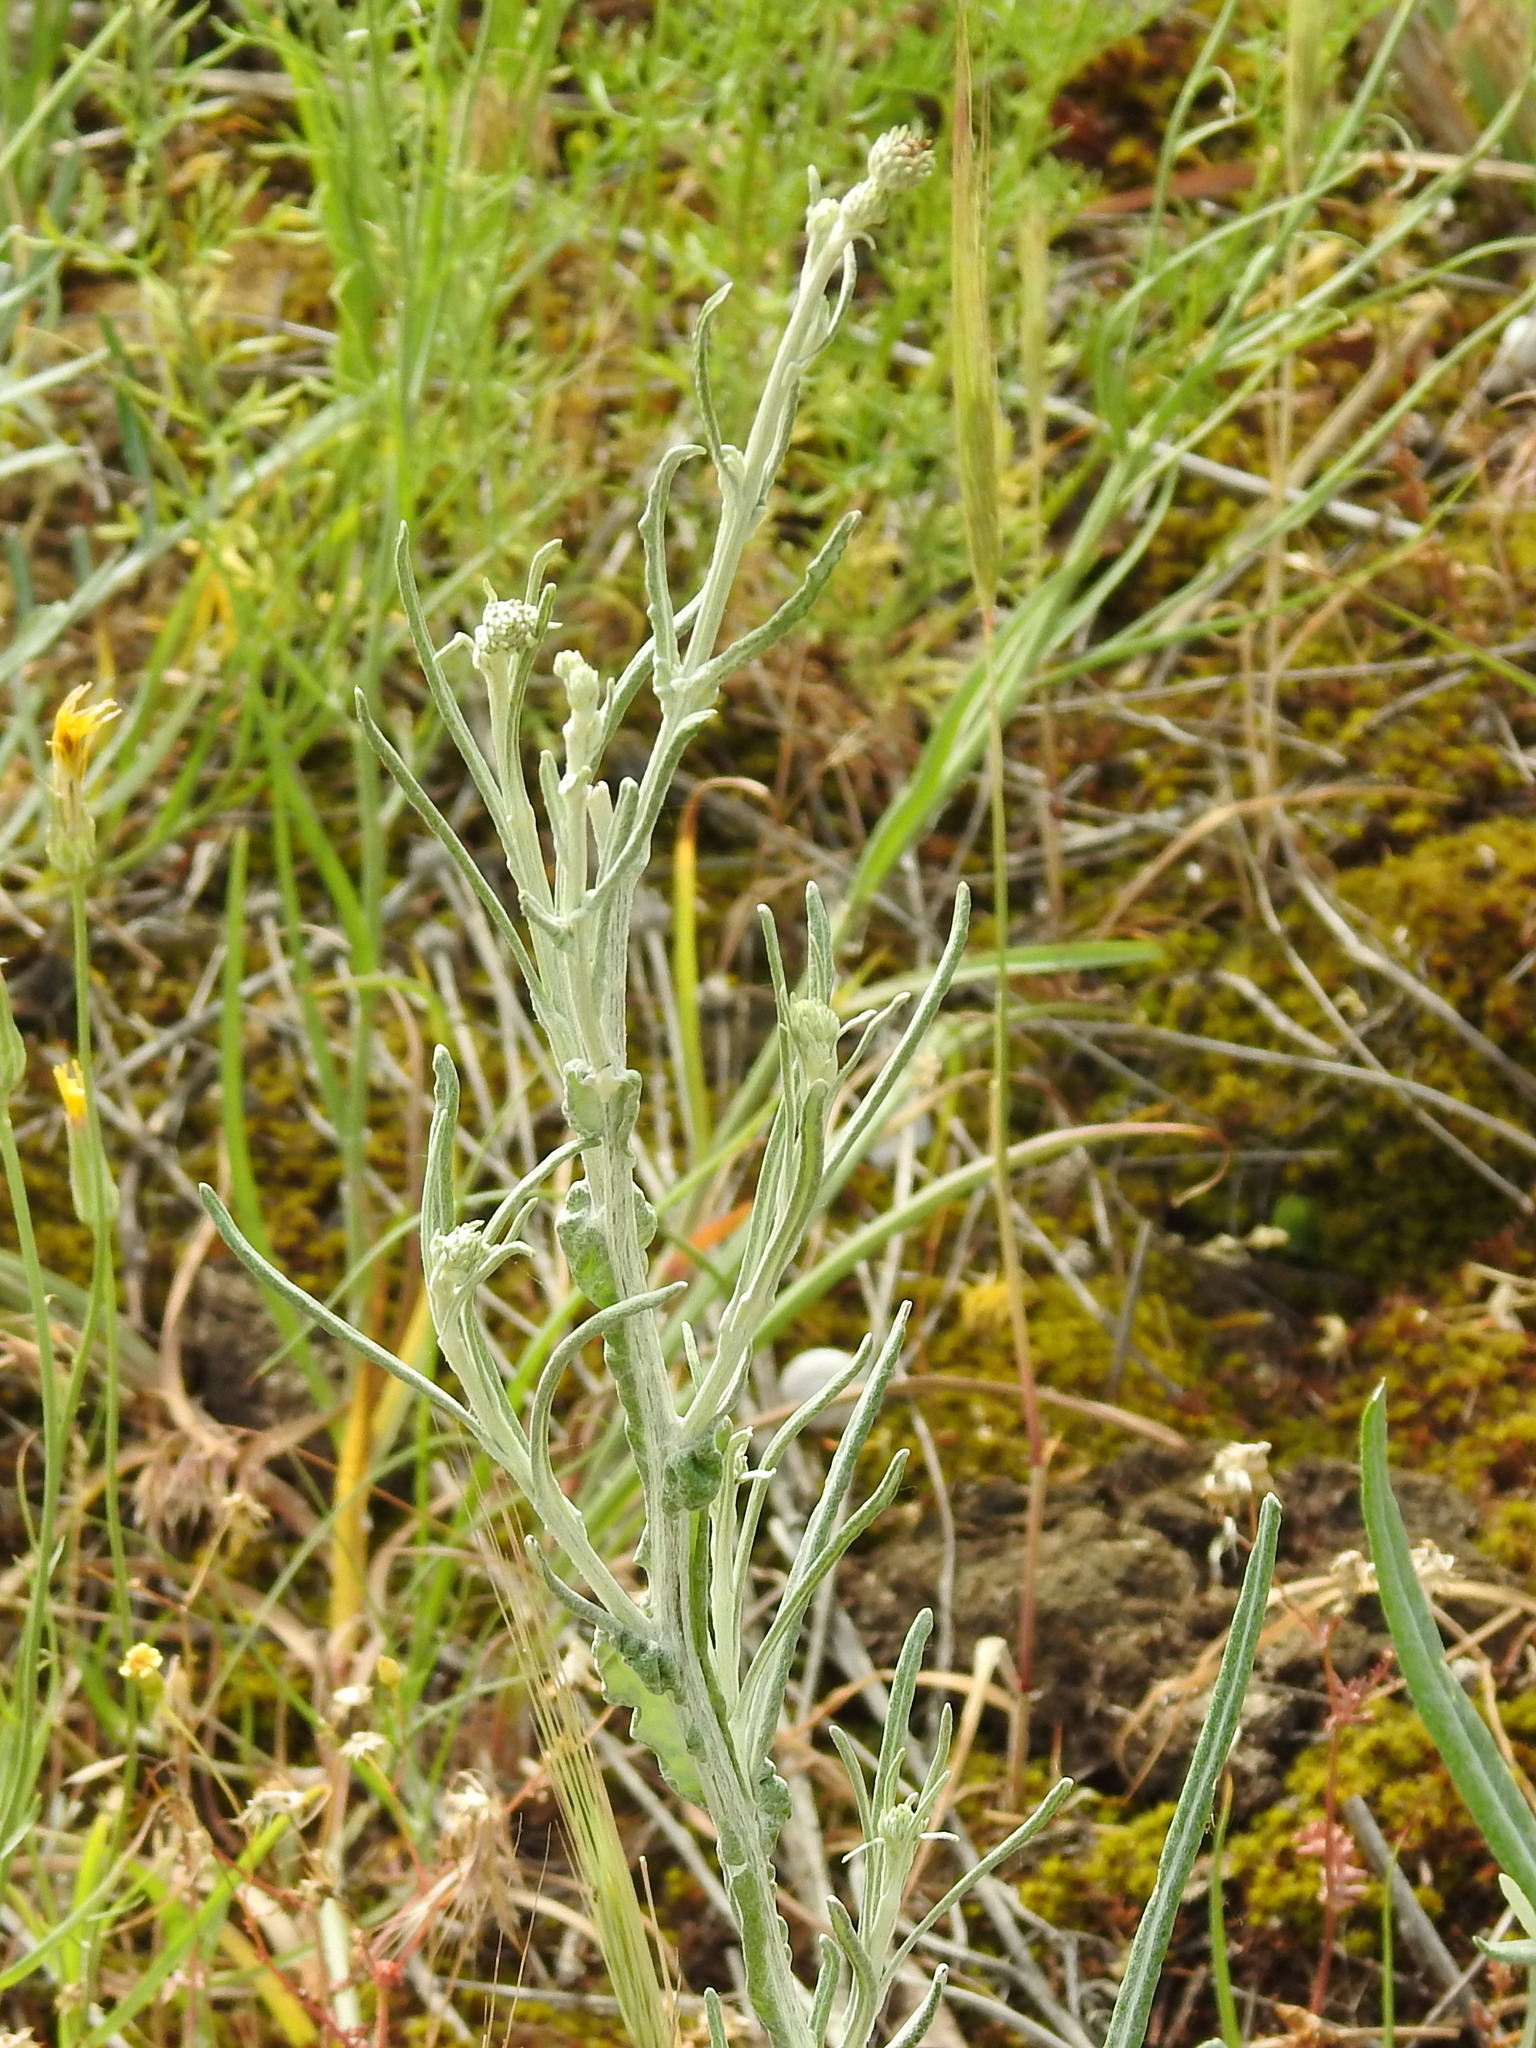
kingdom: Plantae
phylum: Tracheophyta
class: Magnoliopsida
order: Asterales
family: Asteraceae
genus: Jurinea
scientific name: Jurinea polyclonos
